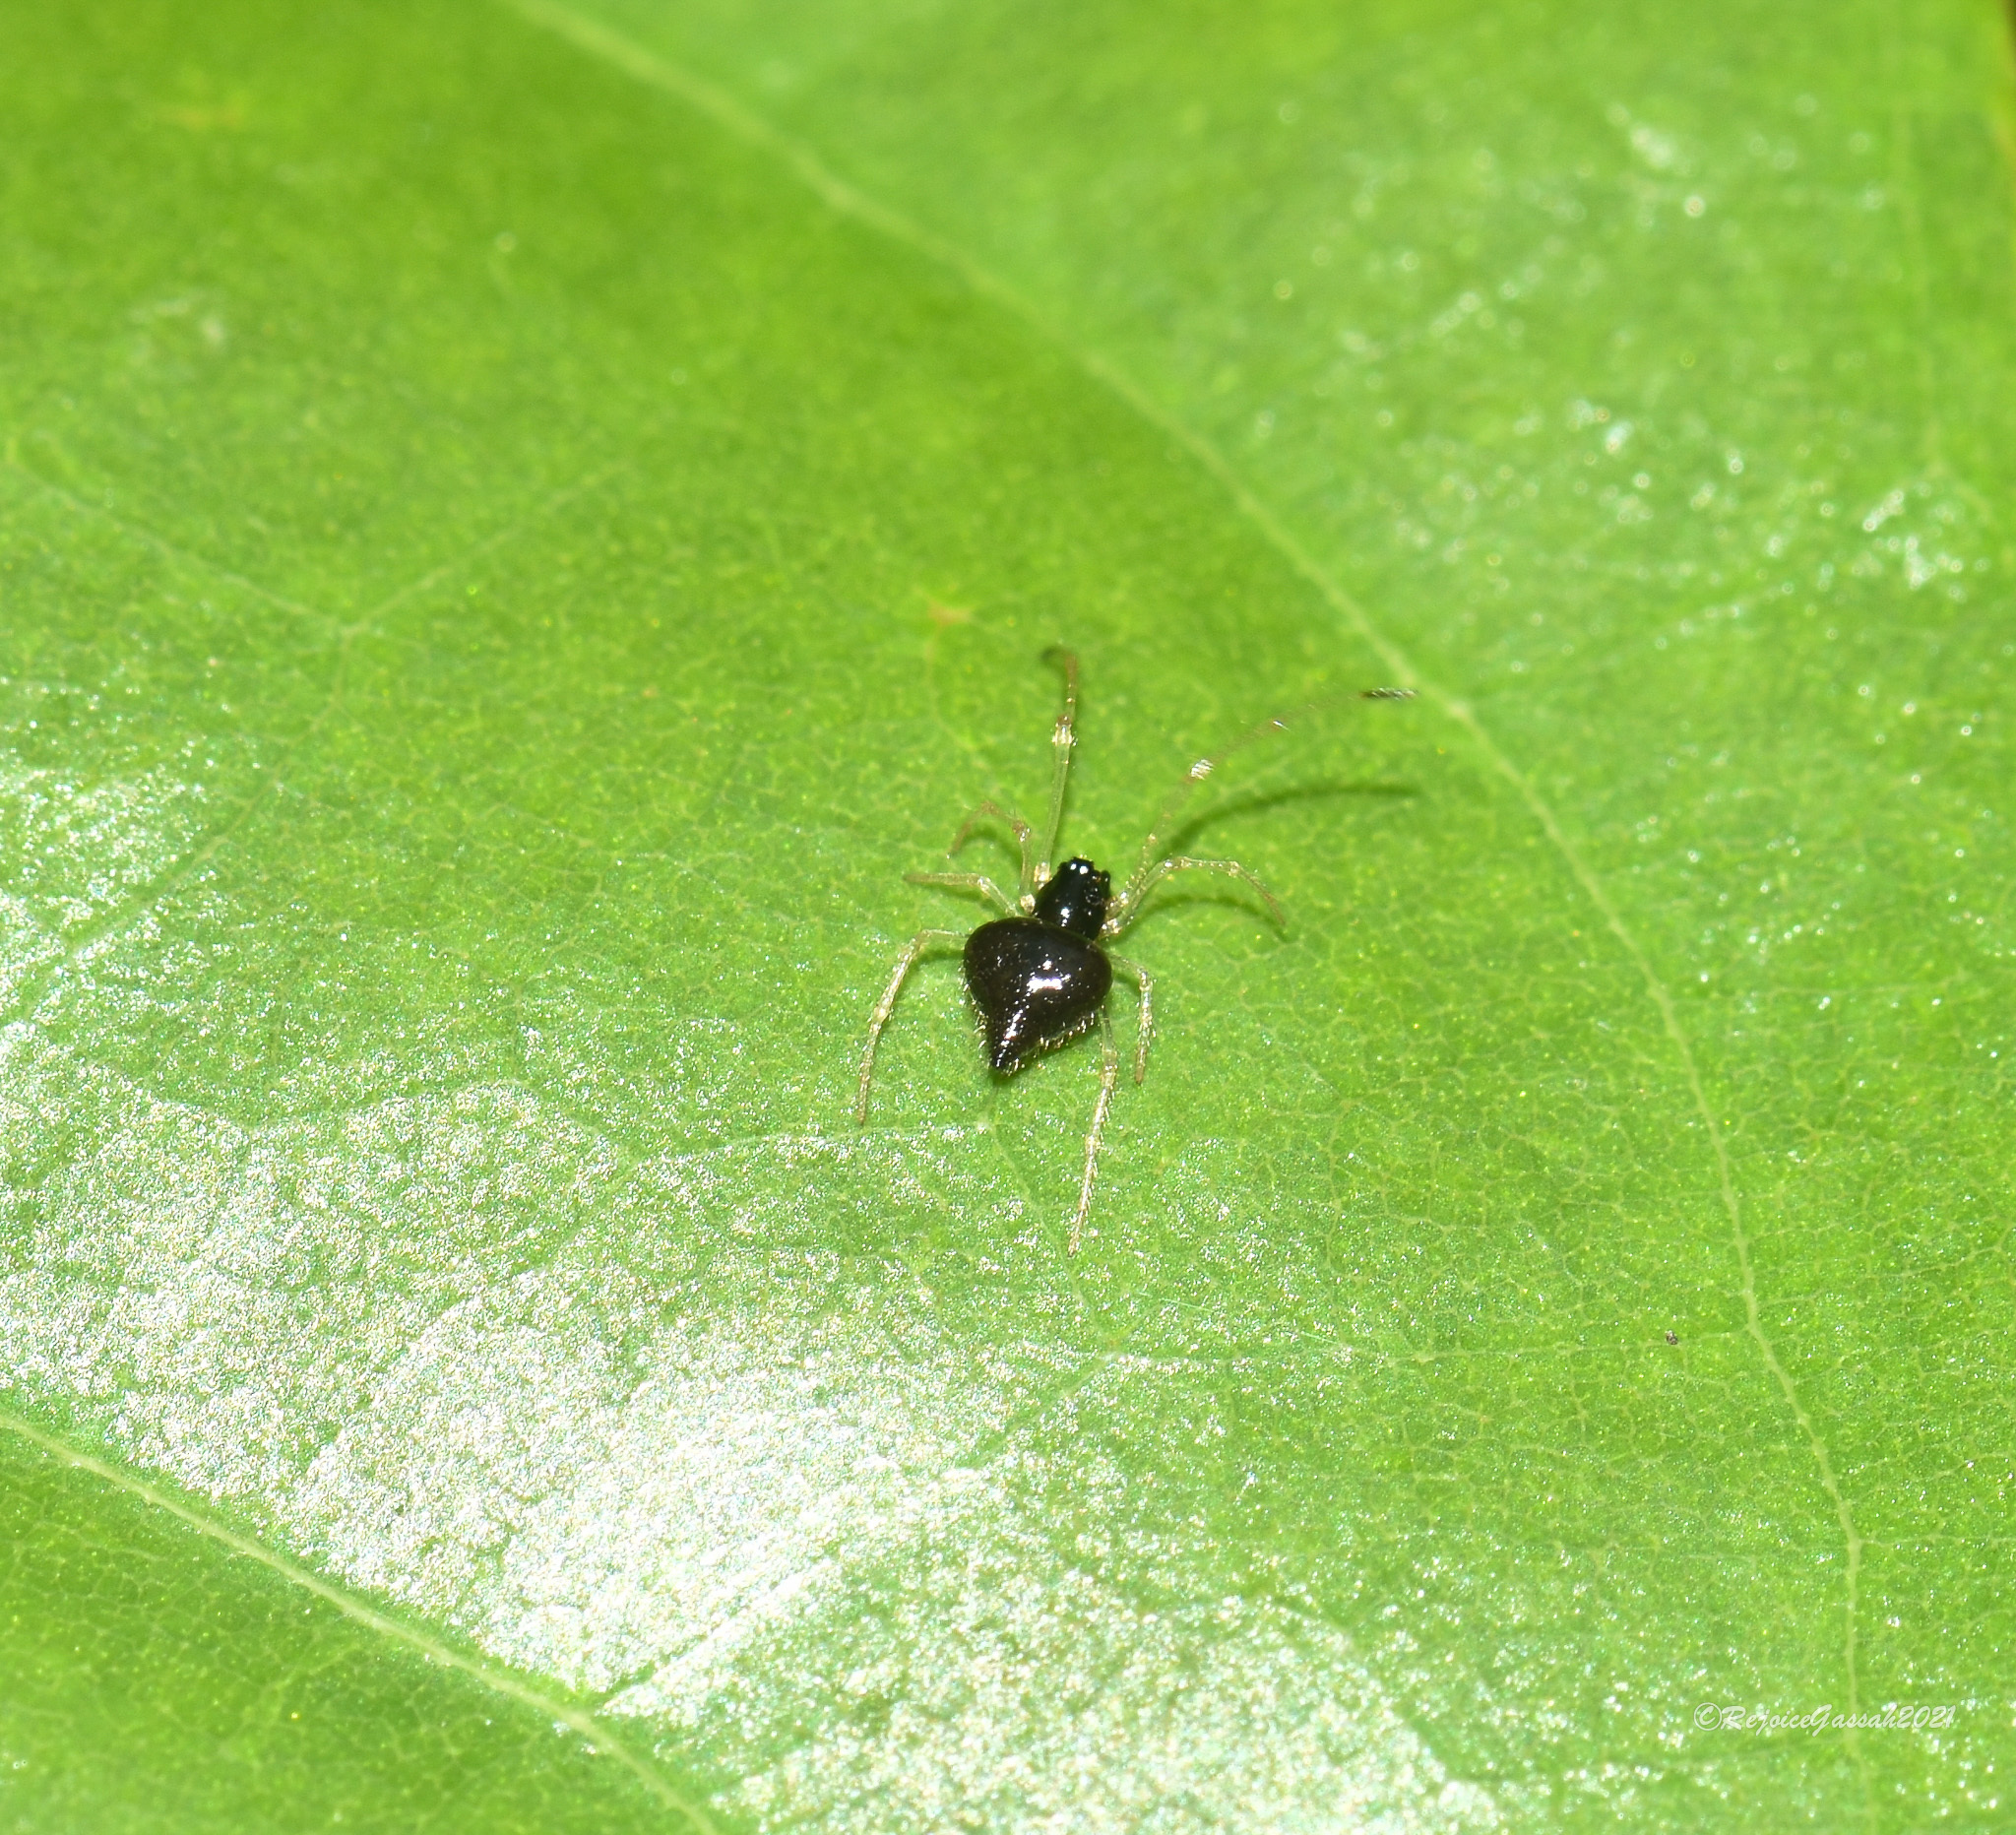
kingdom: Animalia
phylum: Arthropoda
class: Arachnida
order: Araneae
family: Theridiidae
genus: Chikunia
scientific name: Chikunia nigra
